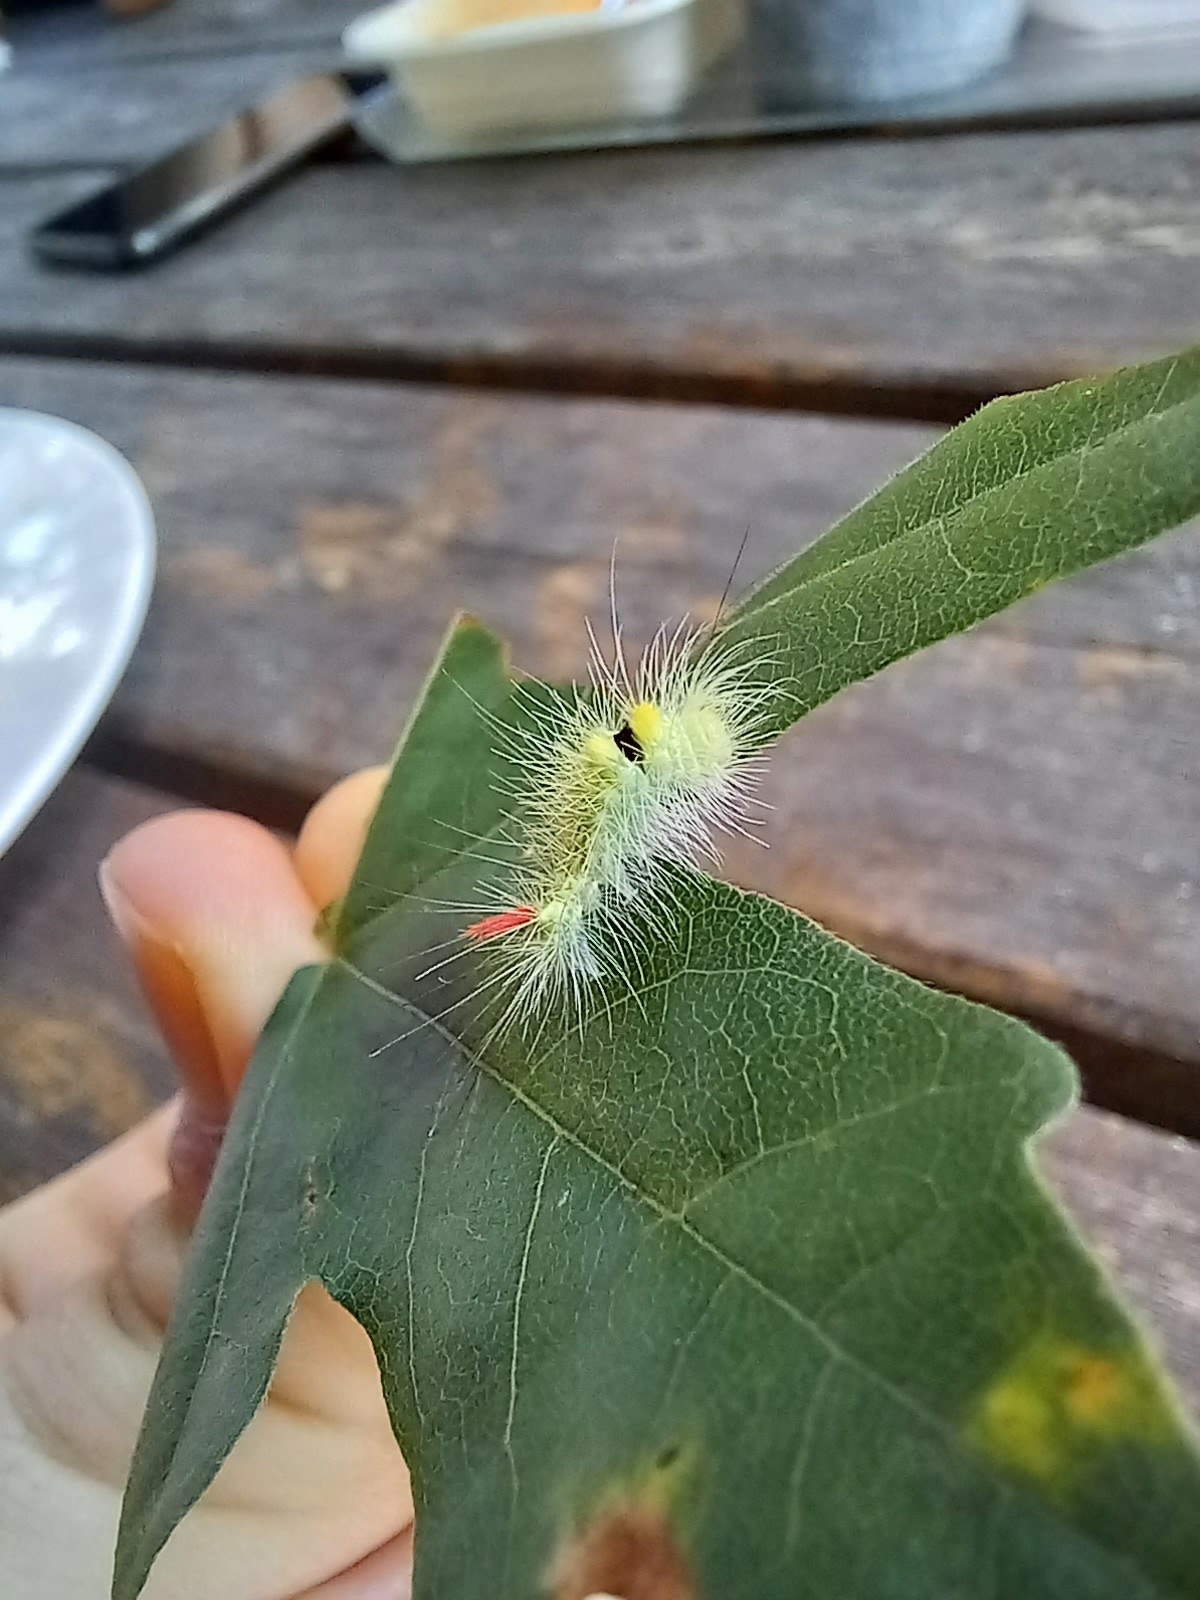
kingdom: Animalia
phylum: Arthropoda
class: Insecta
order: Lepidoptera
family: Erebidae
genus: Calliteara
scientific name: Calliteara pudibunda
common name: Pale tussock
